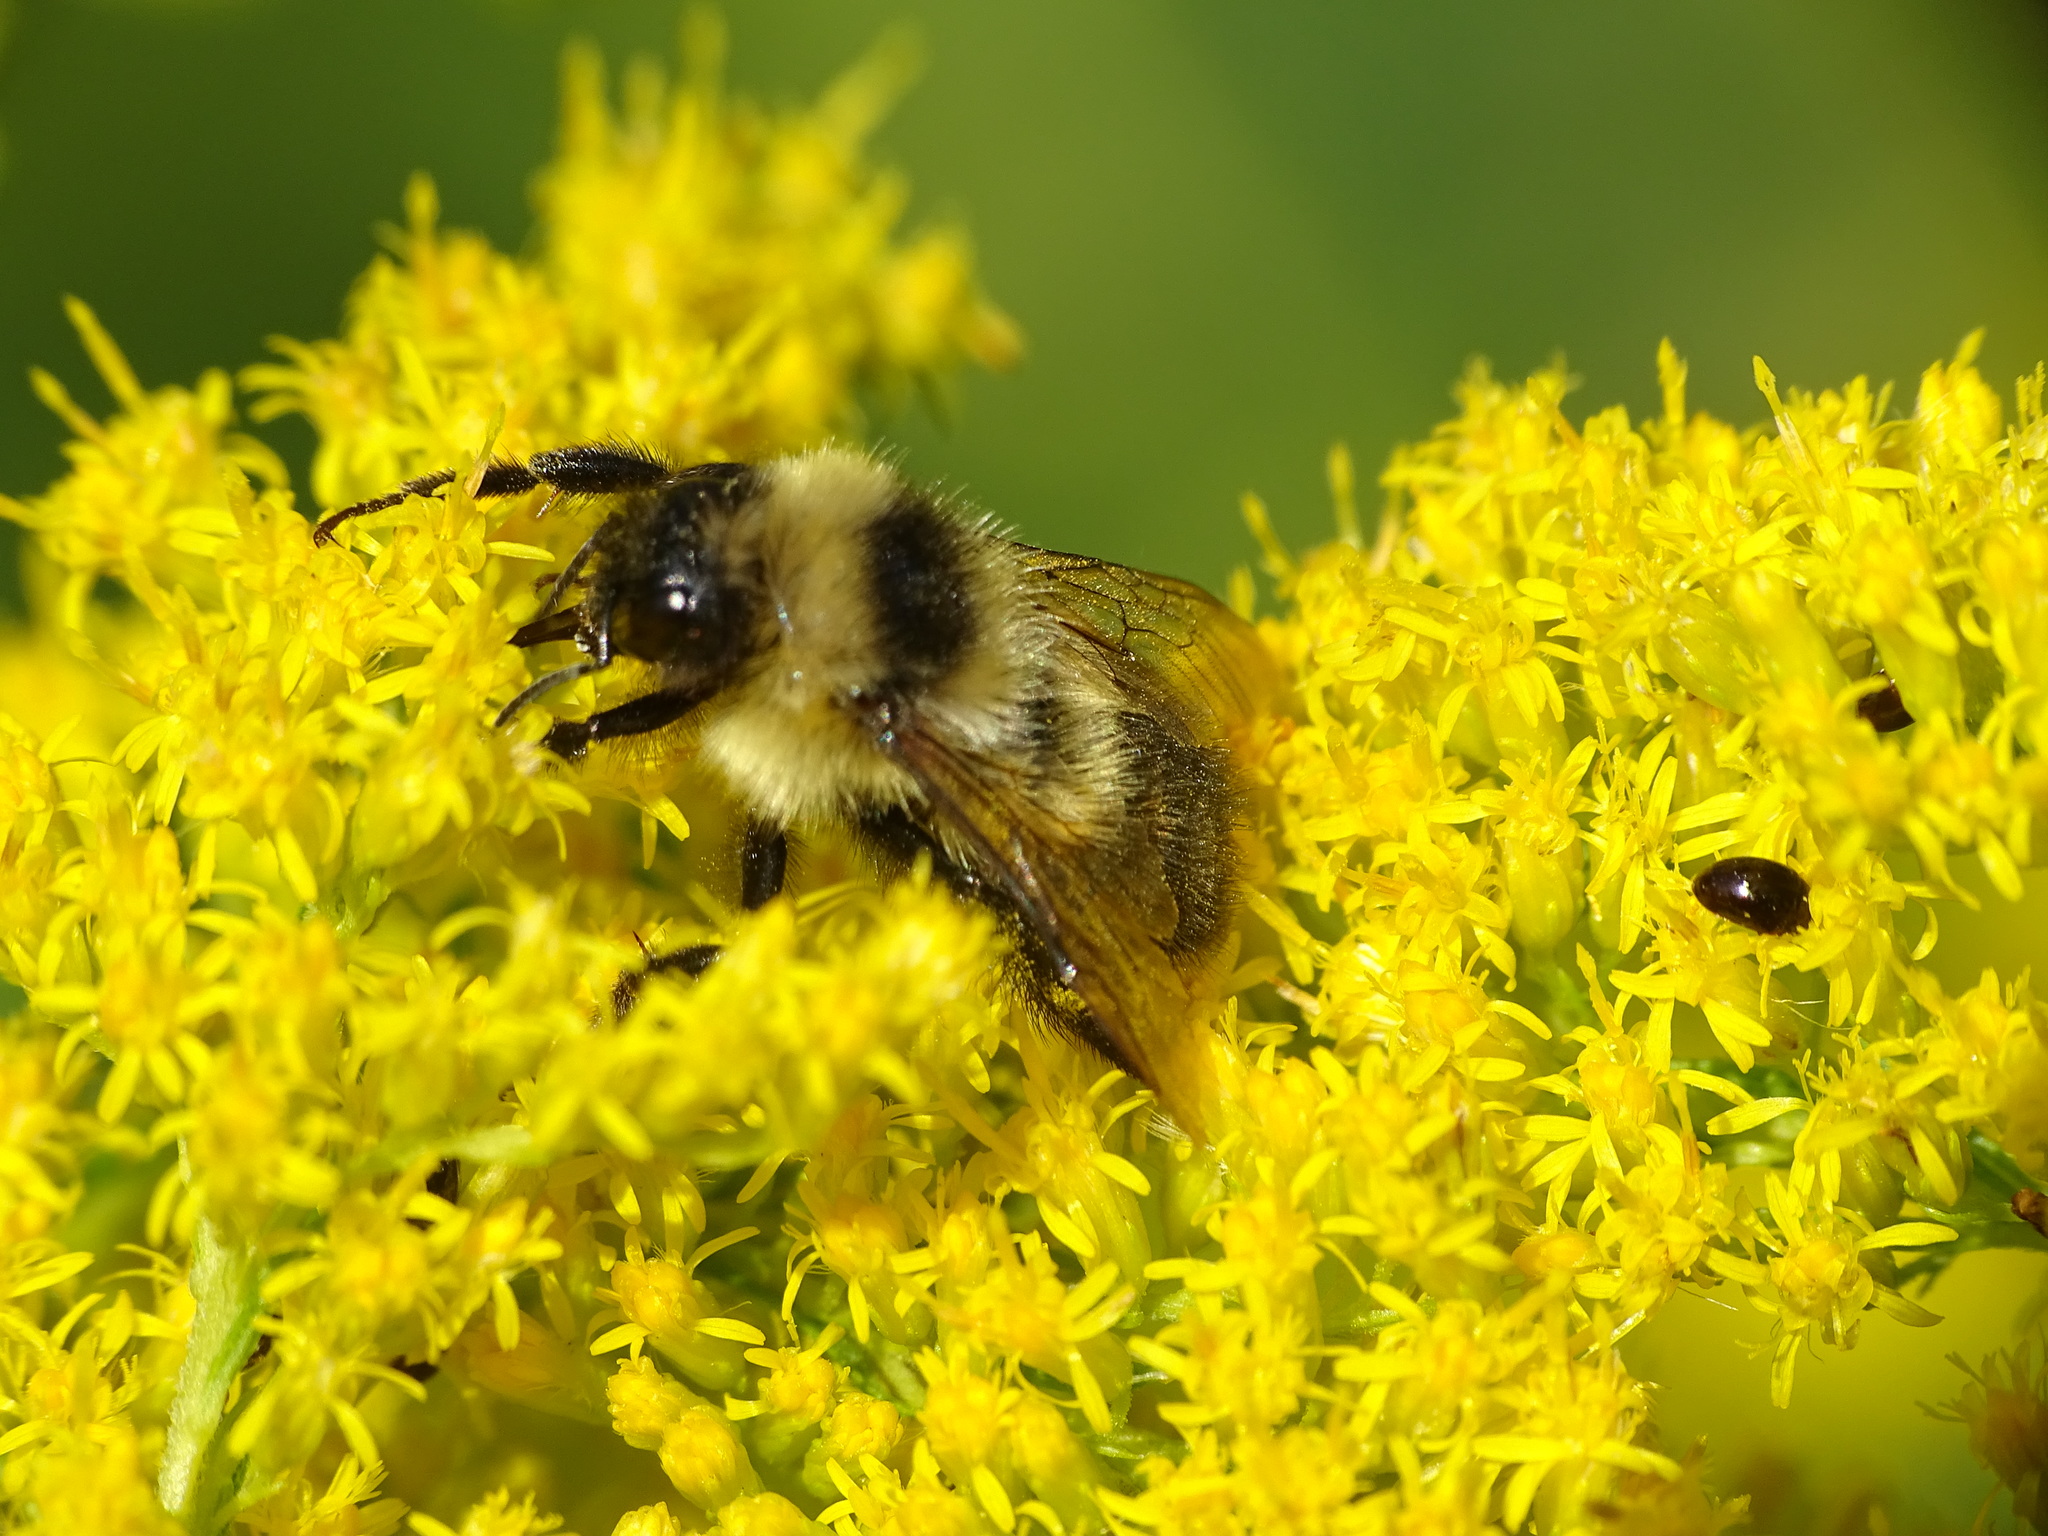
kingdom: Animalia
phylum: Arthropoda
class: Insecta
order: Hymenoptera
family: Apidae
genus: Bombus
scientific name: Bombus rufocinctus
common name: Red-belted bumble bee
